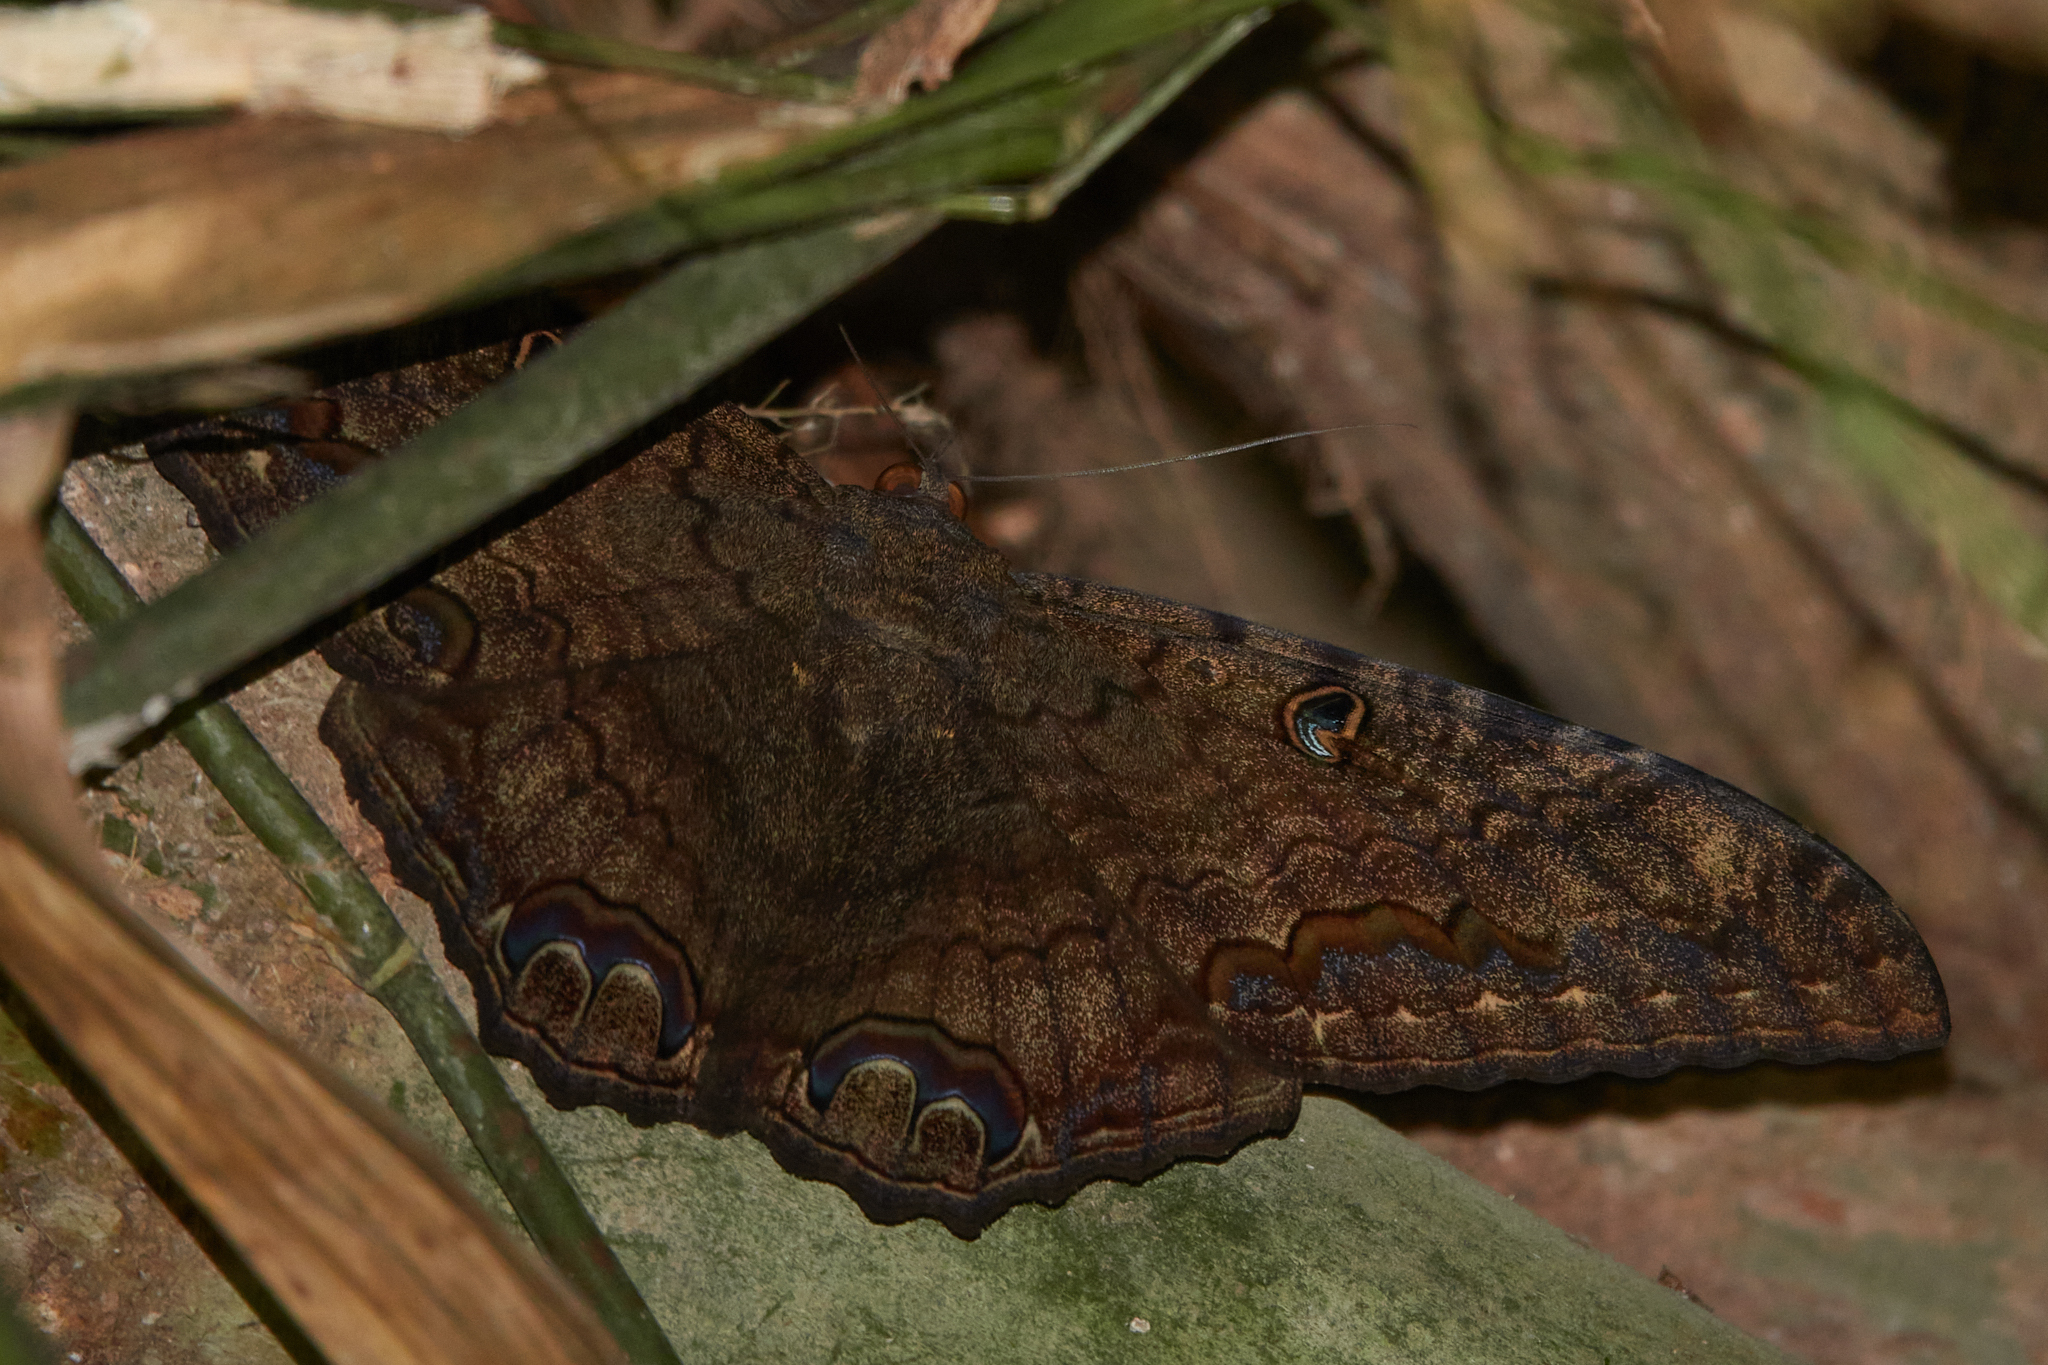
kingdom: Animalia
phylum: Arthropoda
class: Insecta
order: Lepidoptera
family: Erebidae
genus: Ascalapha
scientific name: Ascalapha odorata
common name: Black witch
